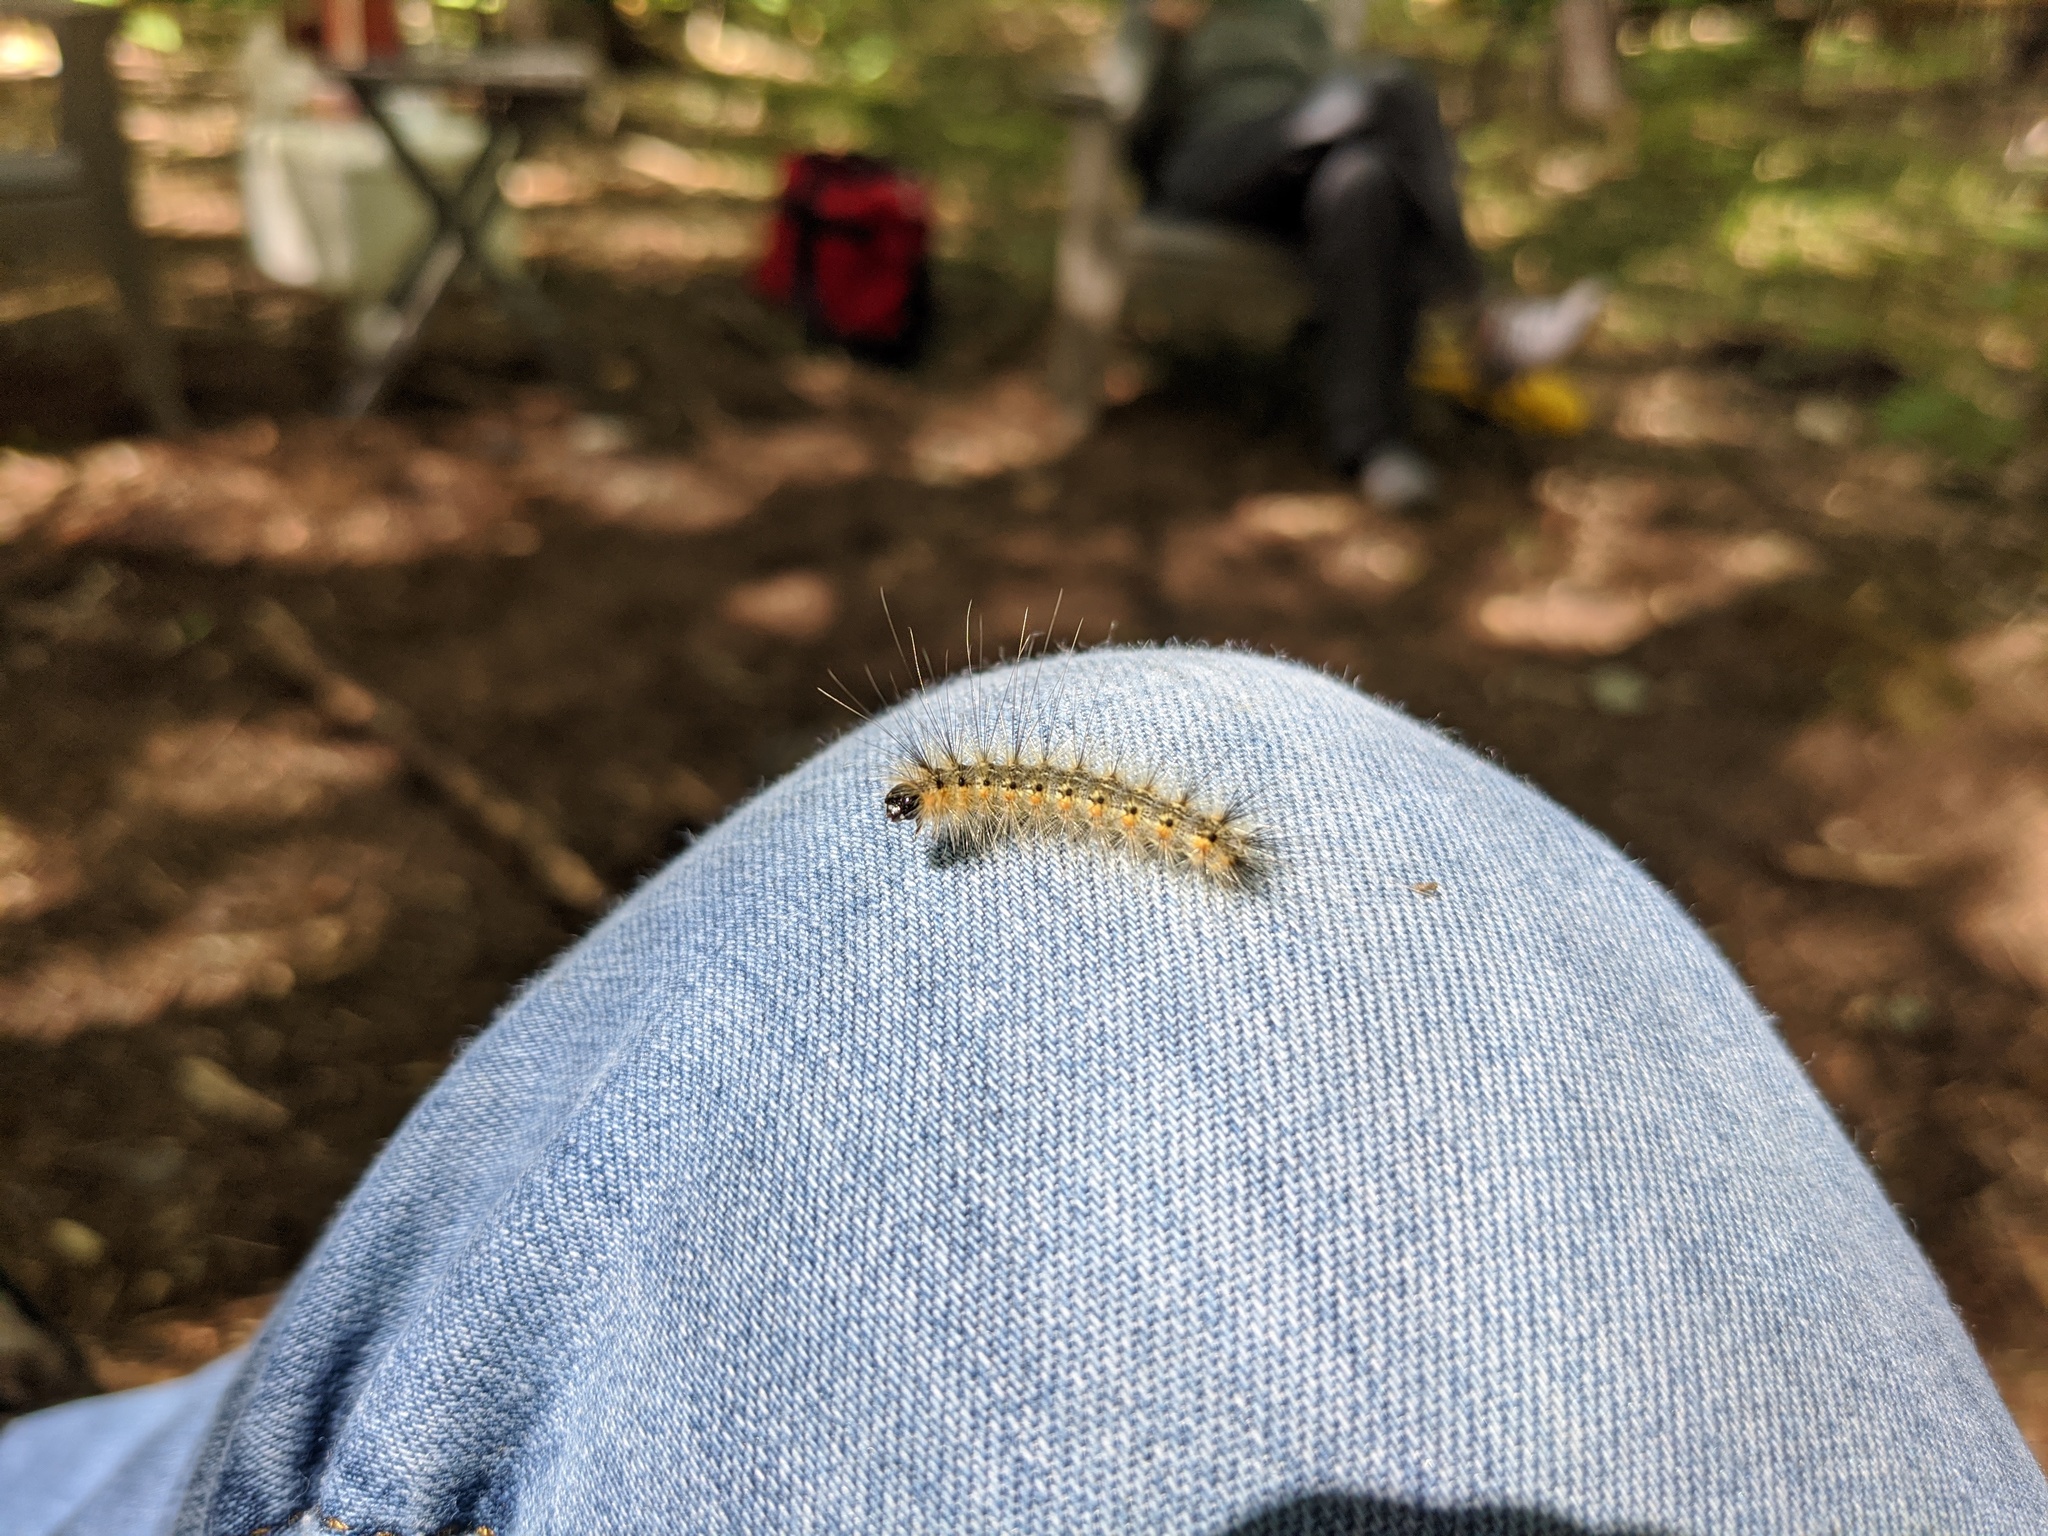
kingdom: Animalia
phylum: Arthropoda
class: Insecta
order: Lepidoptera
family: Erebidae
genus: Hyphantria
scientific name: Hyphantria cunea
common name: American white moth
